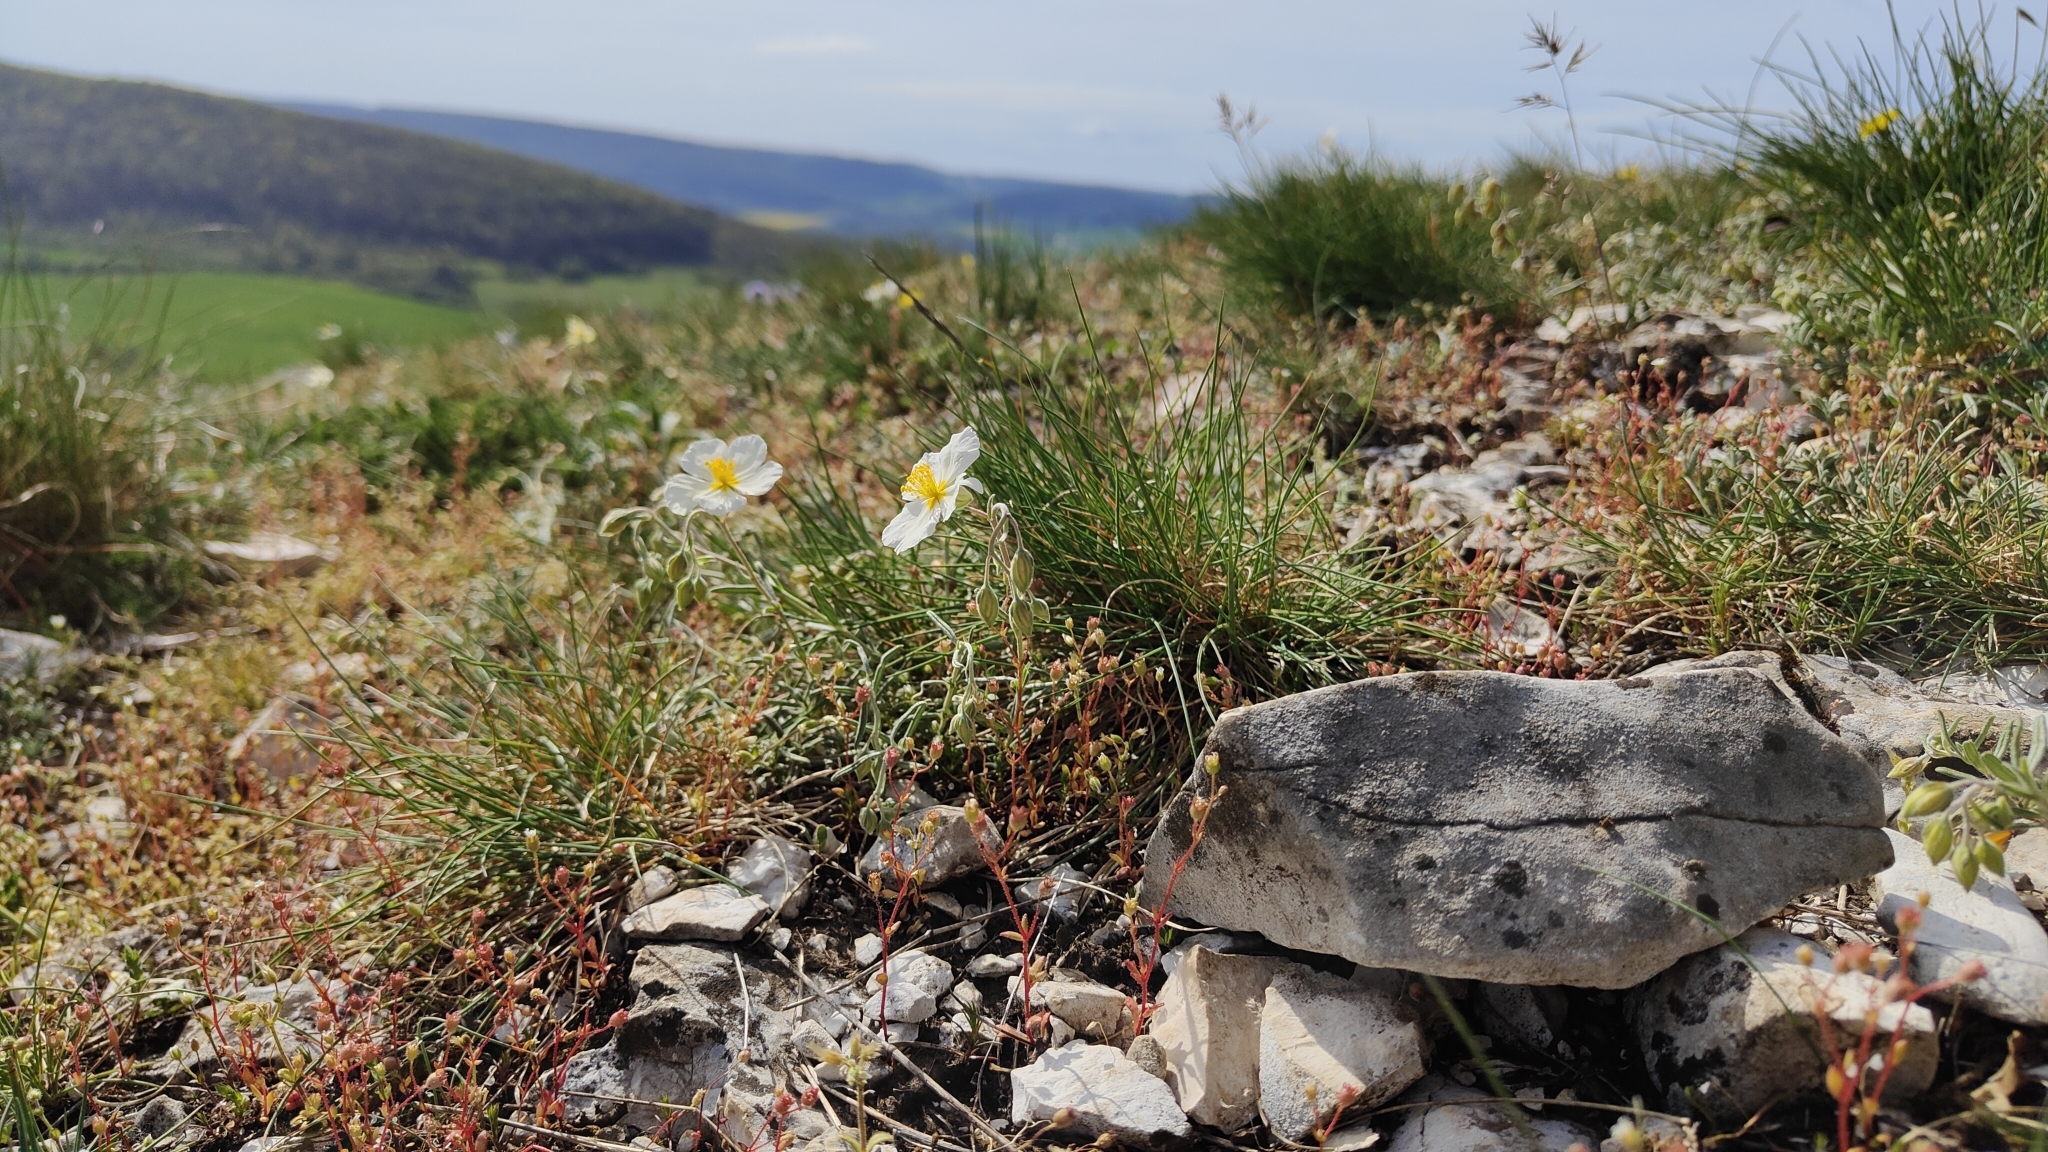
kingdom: Plantae
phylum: Tracheophyta
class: Magnoliopsida
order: Malvales
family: Cistaceae
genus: Helianthemum
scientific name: Helianthemum apenninum
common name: White rock-rose
